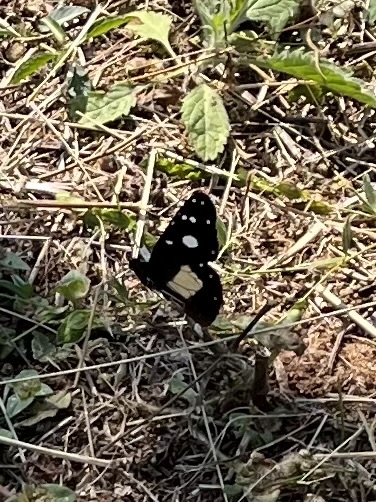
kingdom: Animalia
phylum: Arthropoda
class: Insecta
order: Lepidoptera
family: Nymphalidae
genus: Amauris
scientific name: Amauris albimaculata
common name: Layman
